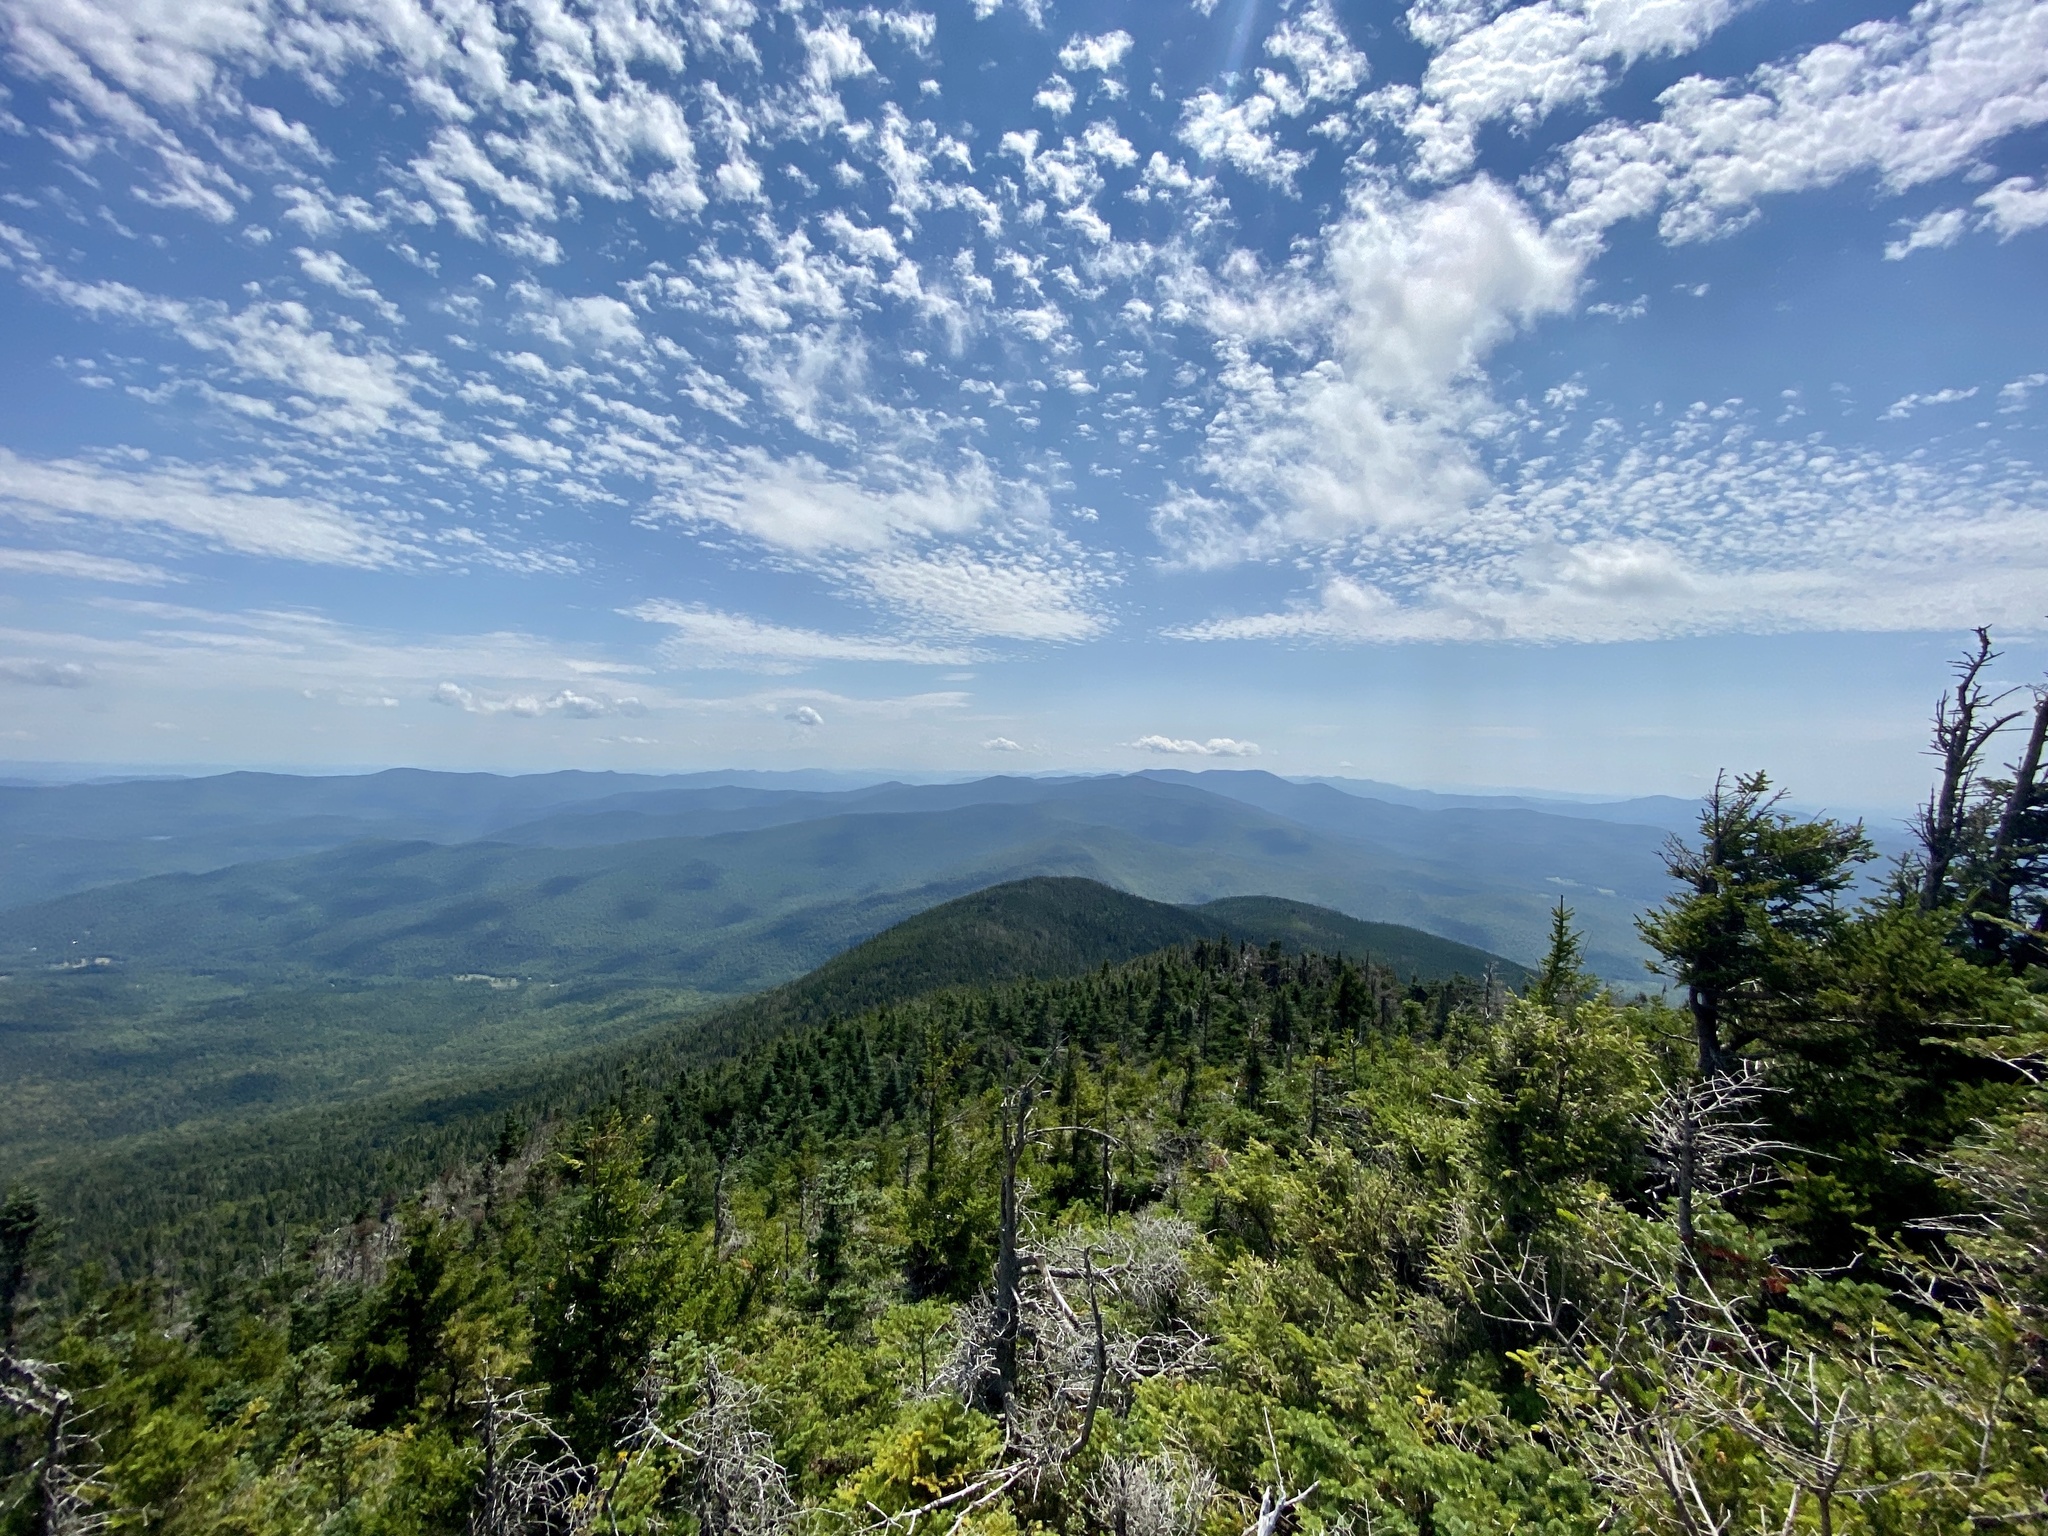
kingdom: Plantae
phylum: Tracheophyta
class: Pinopsida
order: Pinales
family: Pinaceae
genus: Abies
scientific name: Abies balsamea
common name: Balsam fir
